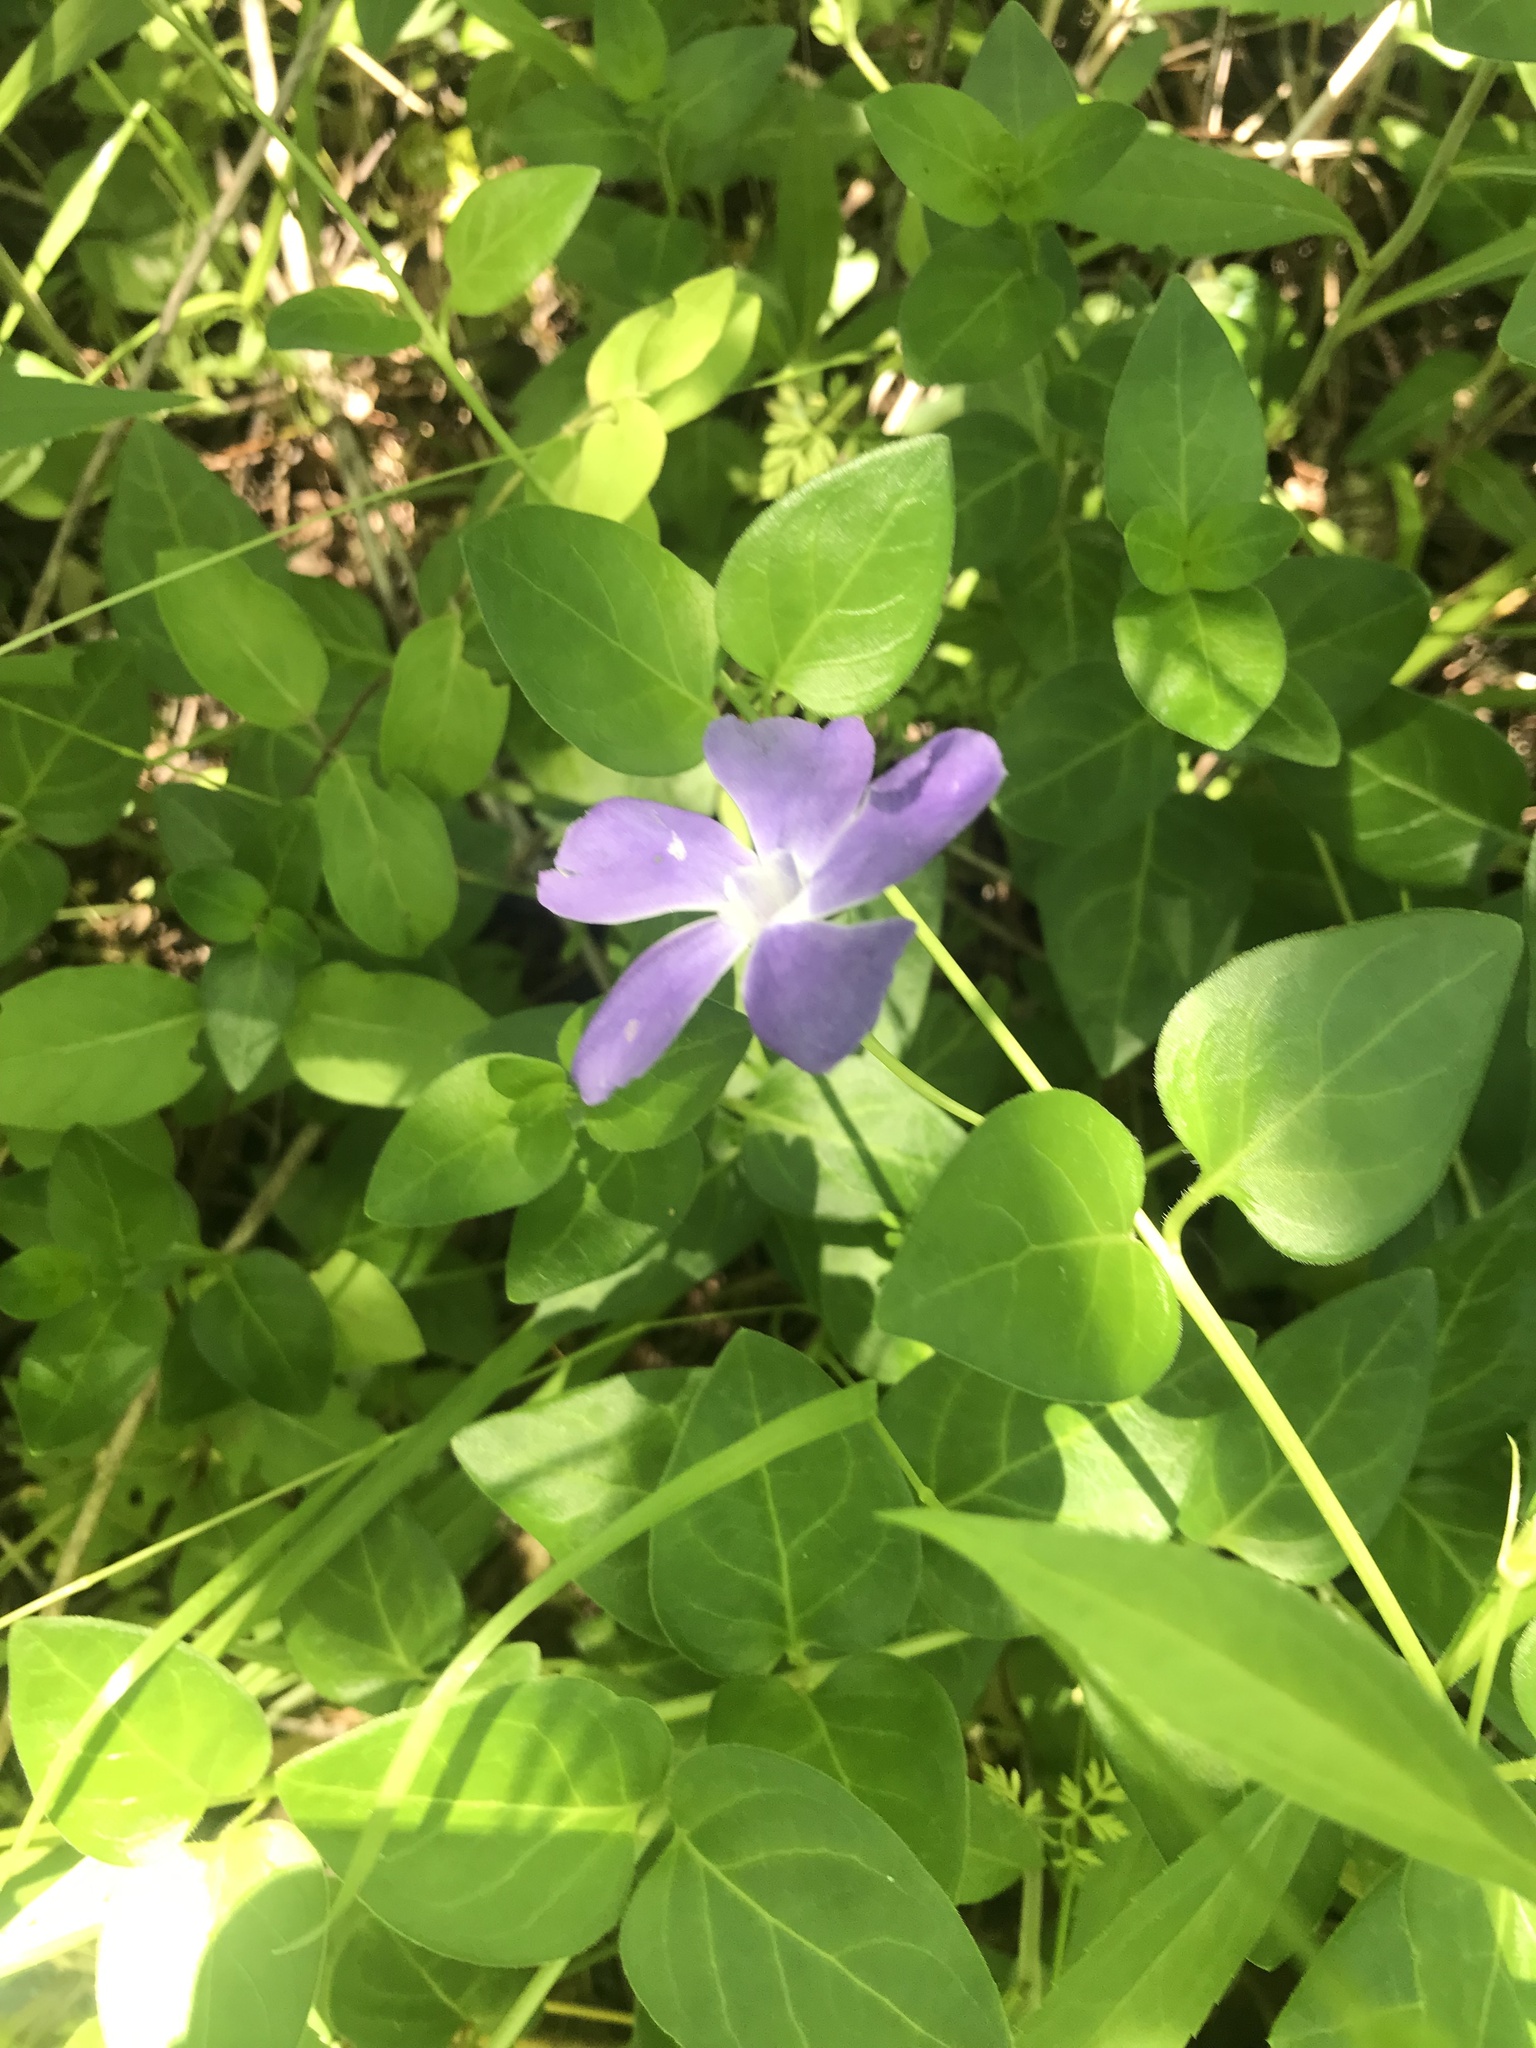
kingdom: Plantae
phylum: Tracheophyta
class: Magnoliopsida
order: Gentianales
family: Apocynaceae
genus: Vinca
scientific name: Vinca major
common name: Greater periwinkle
